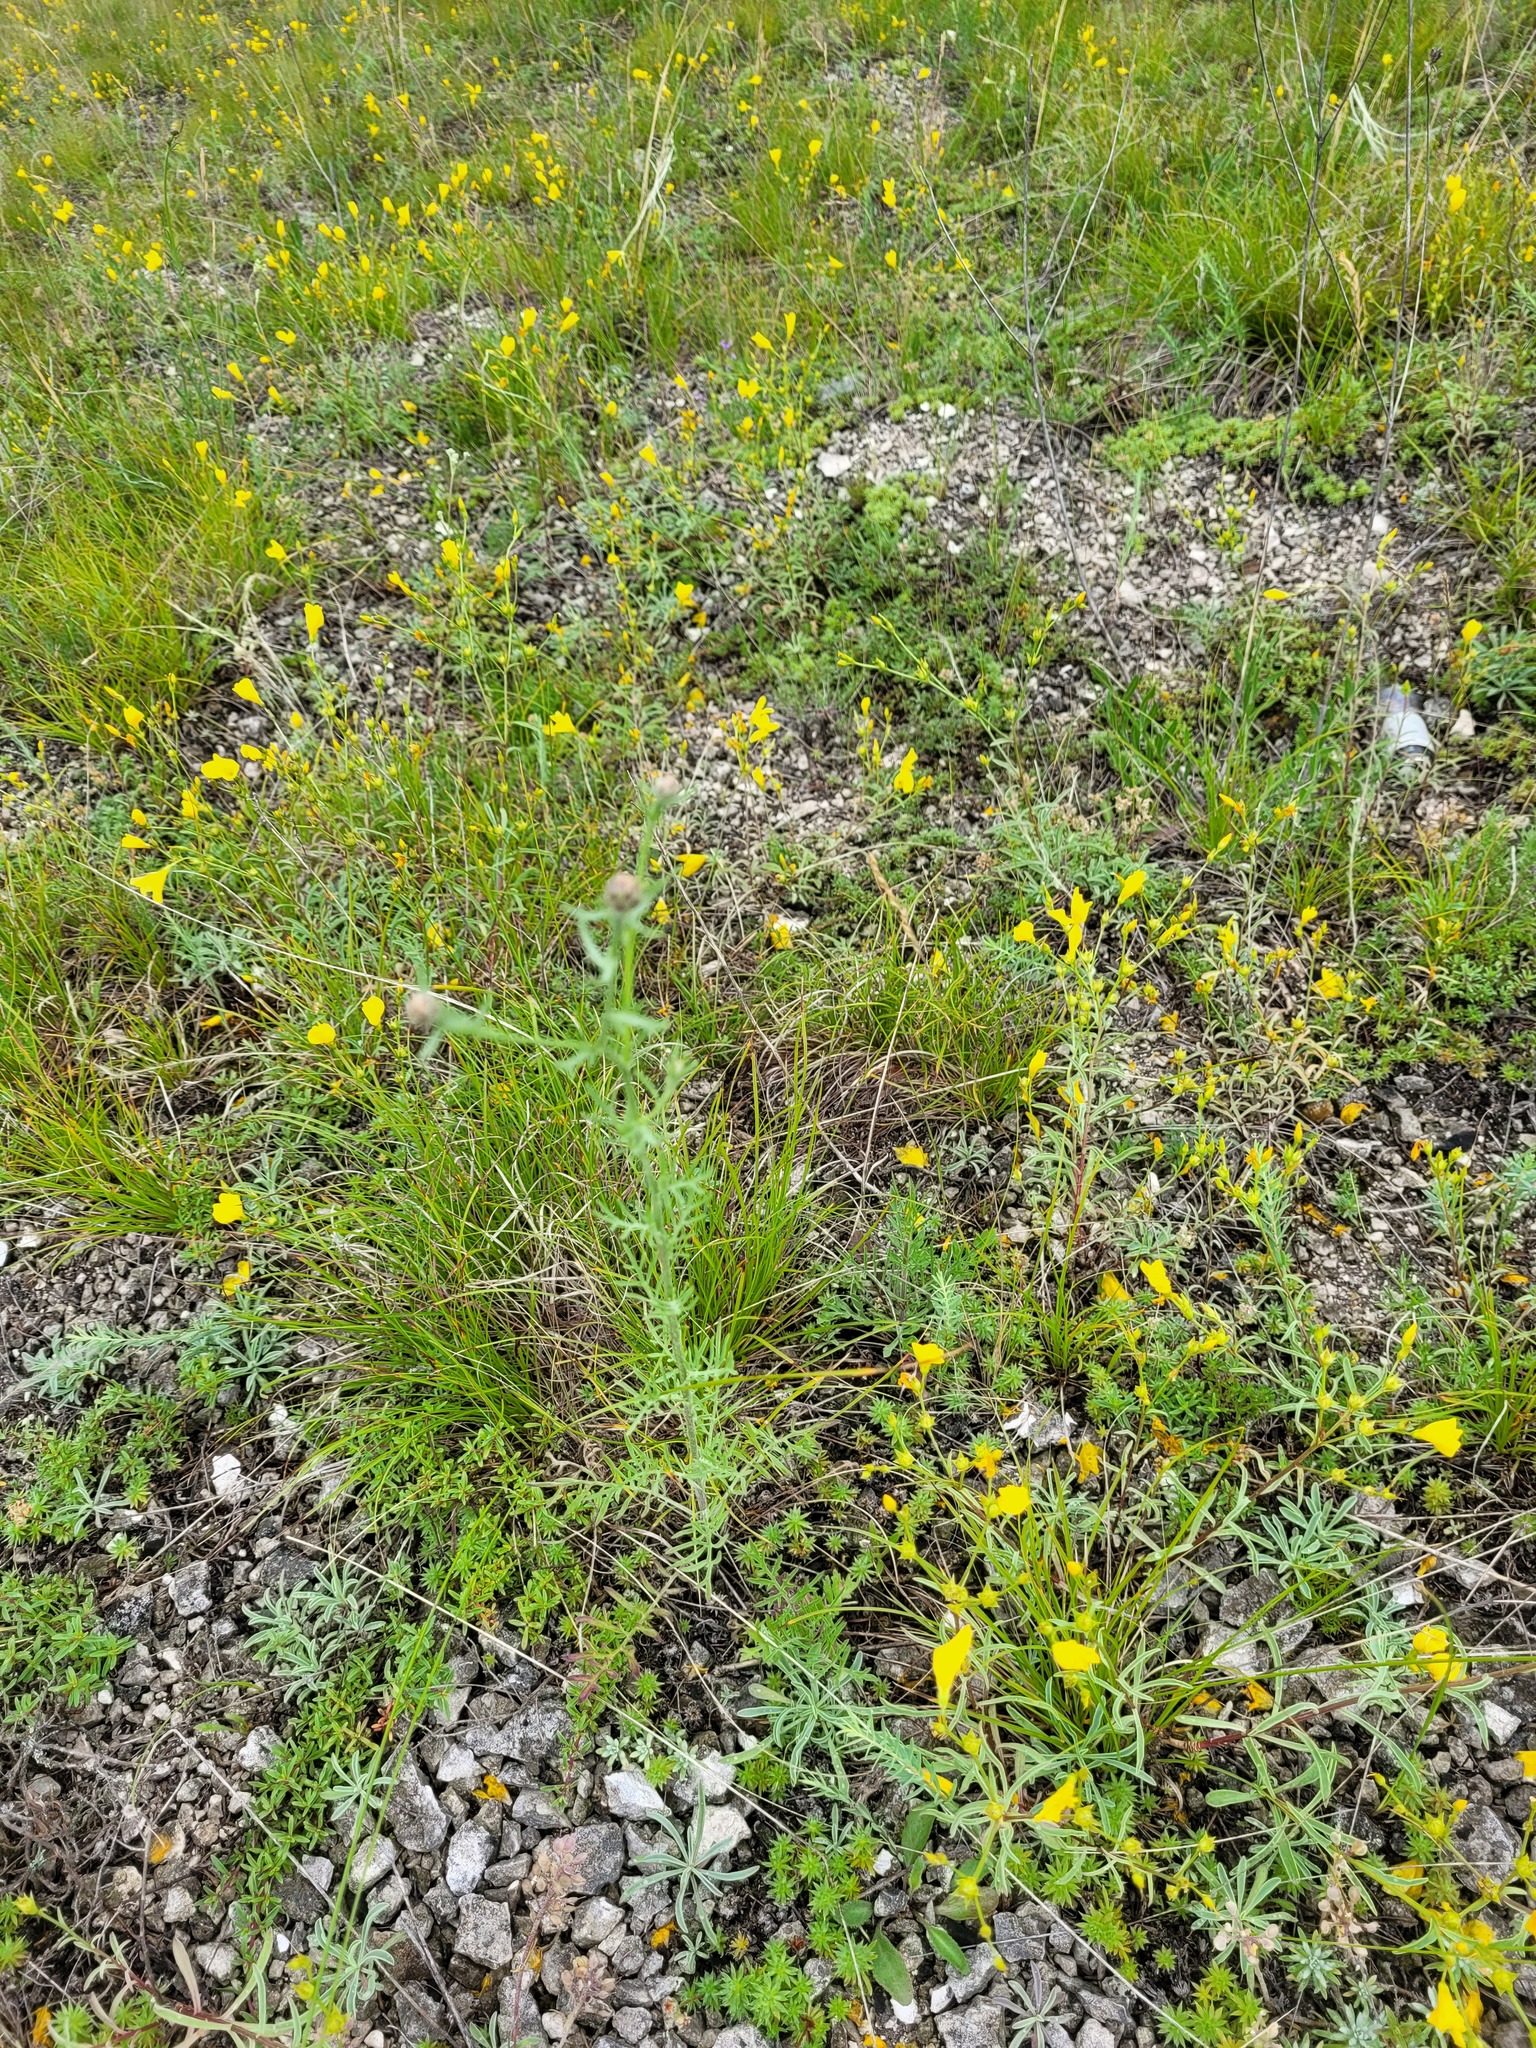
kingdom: Plantae
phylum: Tracheophyta
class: Magnoliopsida
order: Asterales
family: Asteraceae
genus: Centaurea
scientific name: Centaurea stoebe
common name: Spotted knapweed
